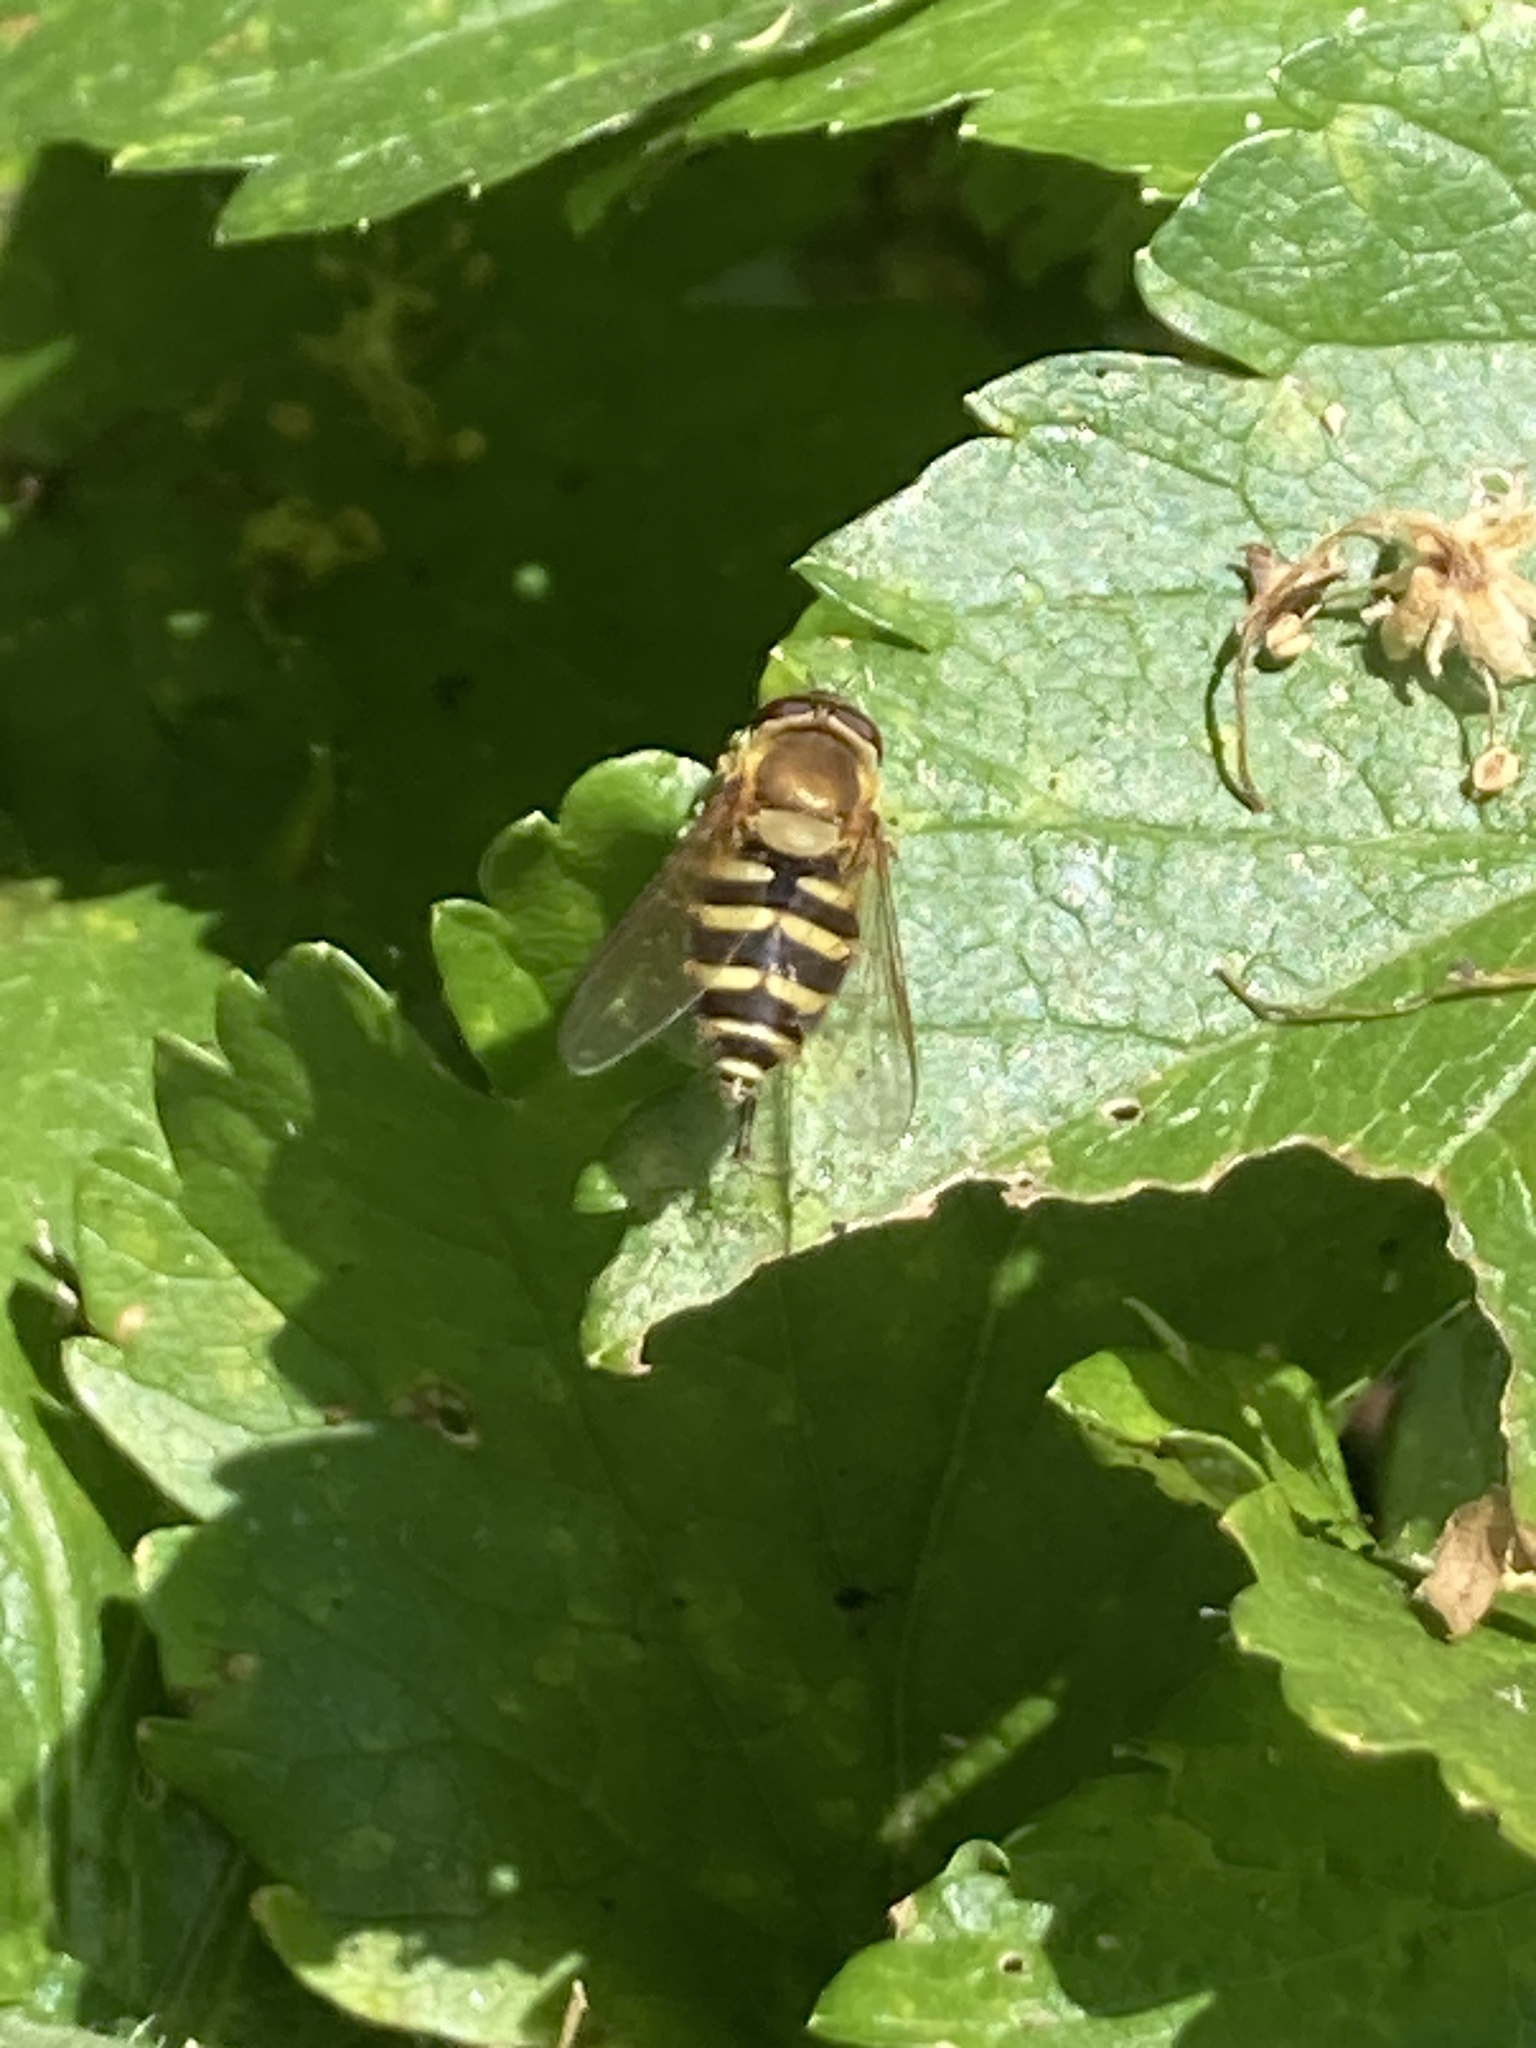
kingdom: Animalia
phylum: Arthropoda
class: Insecta
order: Diptera
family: Syrphidae
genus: Syrphus
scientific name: Syrphus
